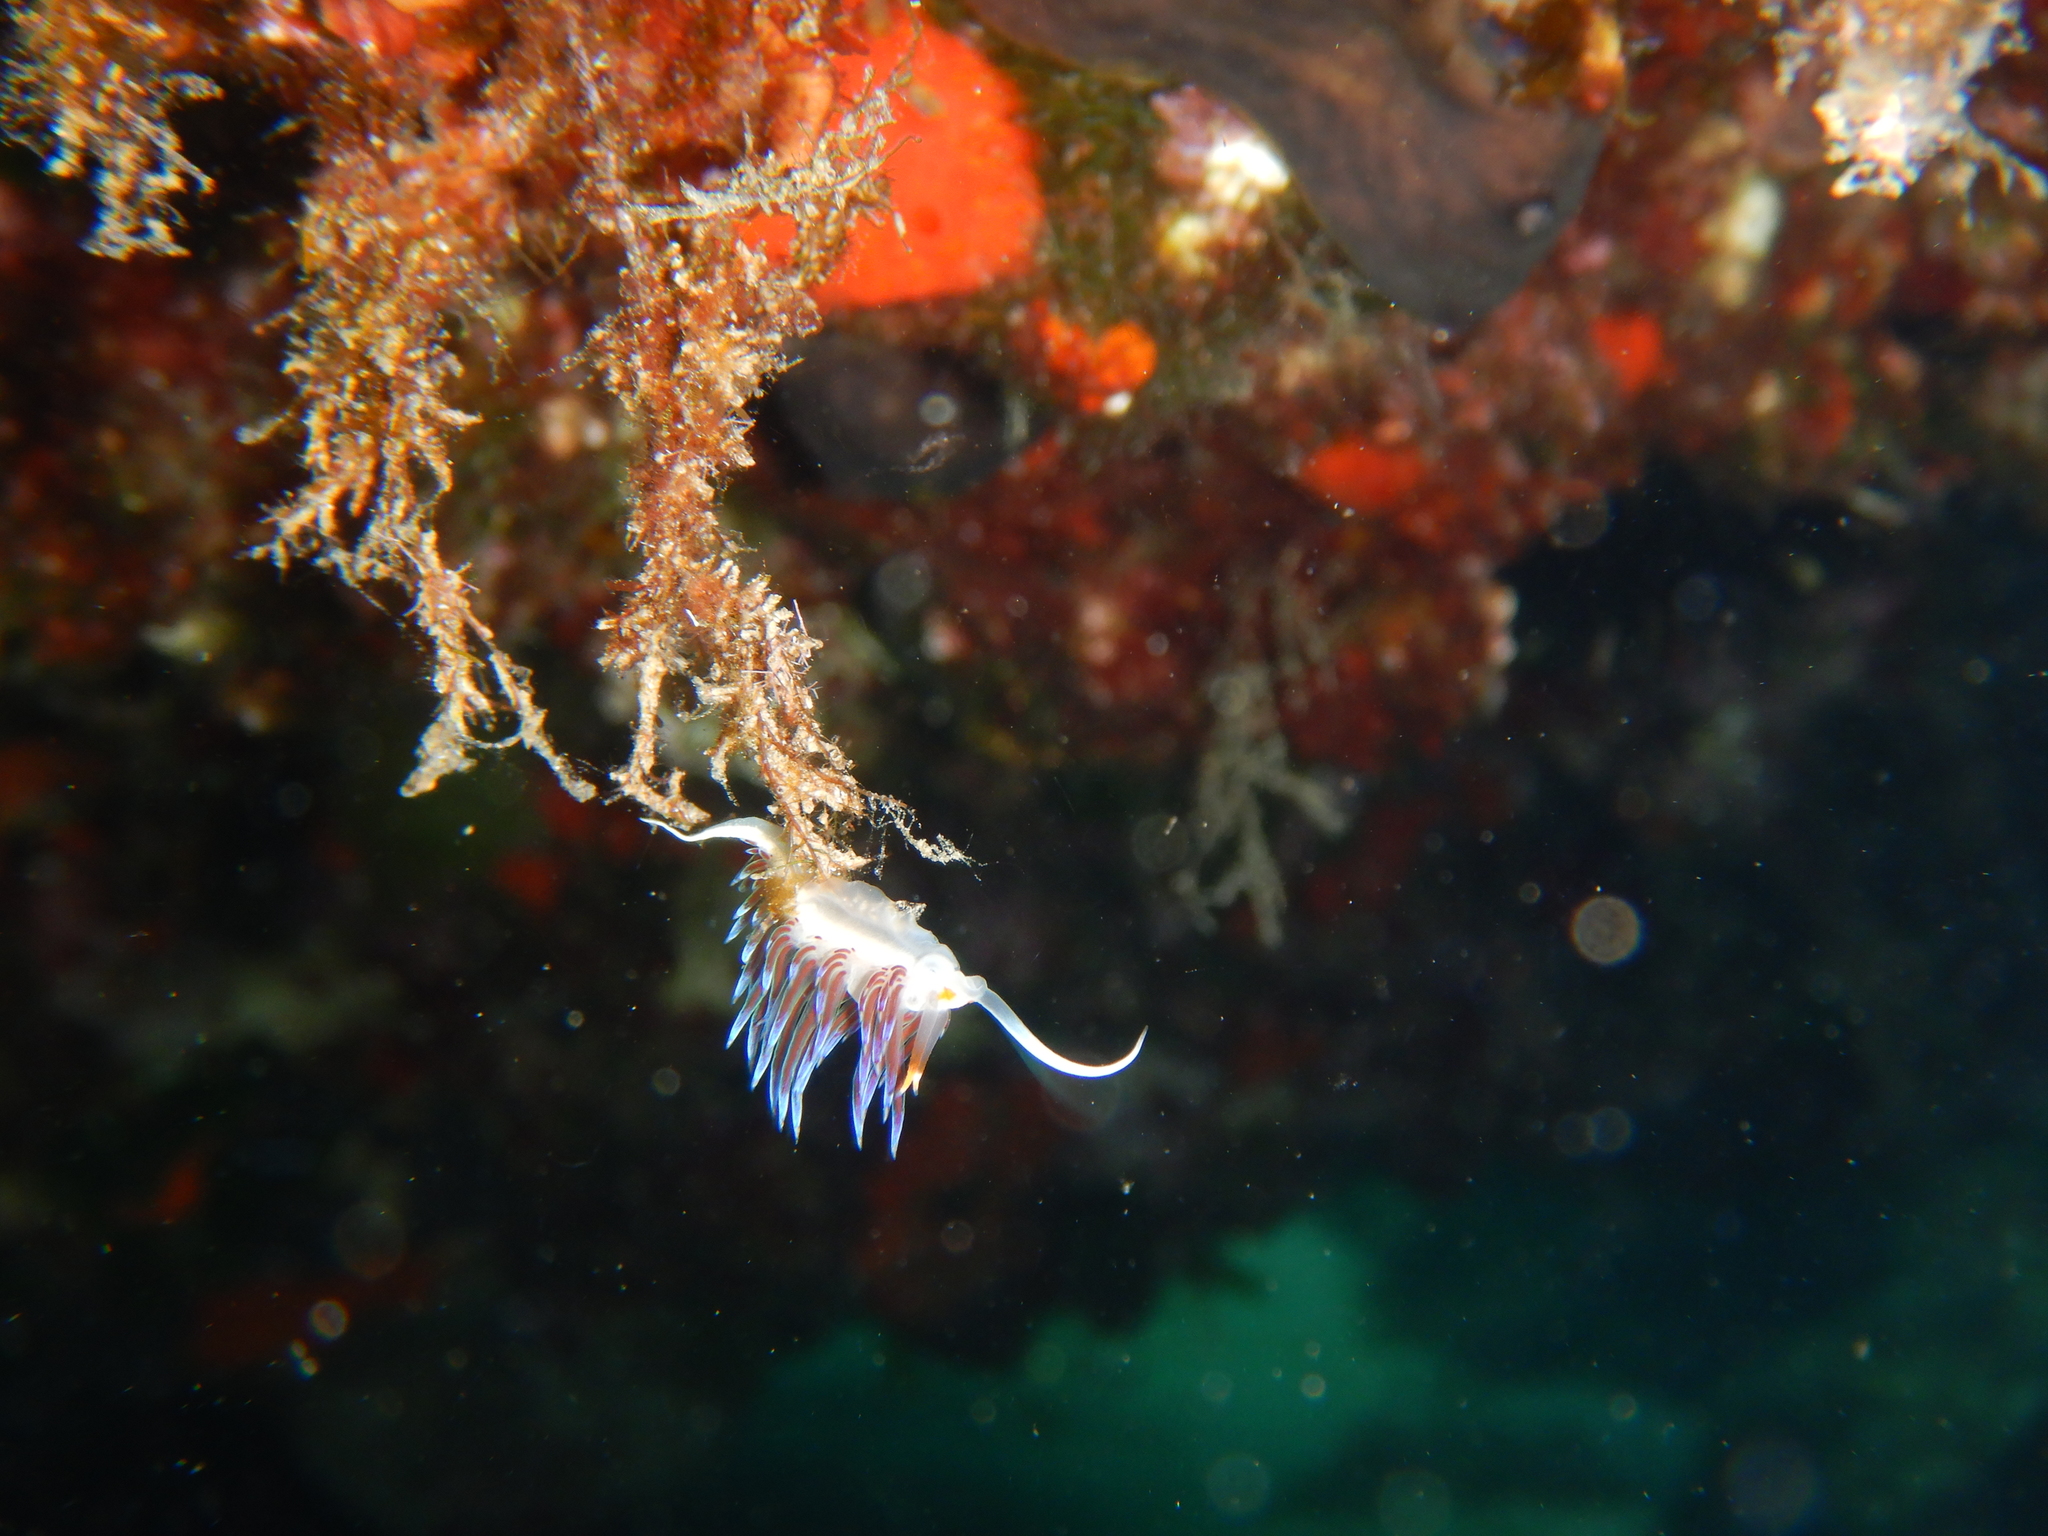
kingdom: Animalia
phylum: Mollusca
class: Gastropoda
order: Nudibranchia
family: Facelinidae
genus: Cratena
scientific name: Cratena peregrina
